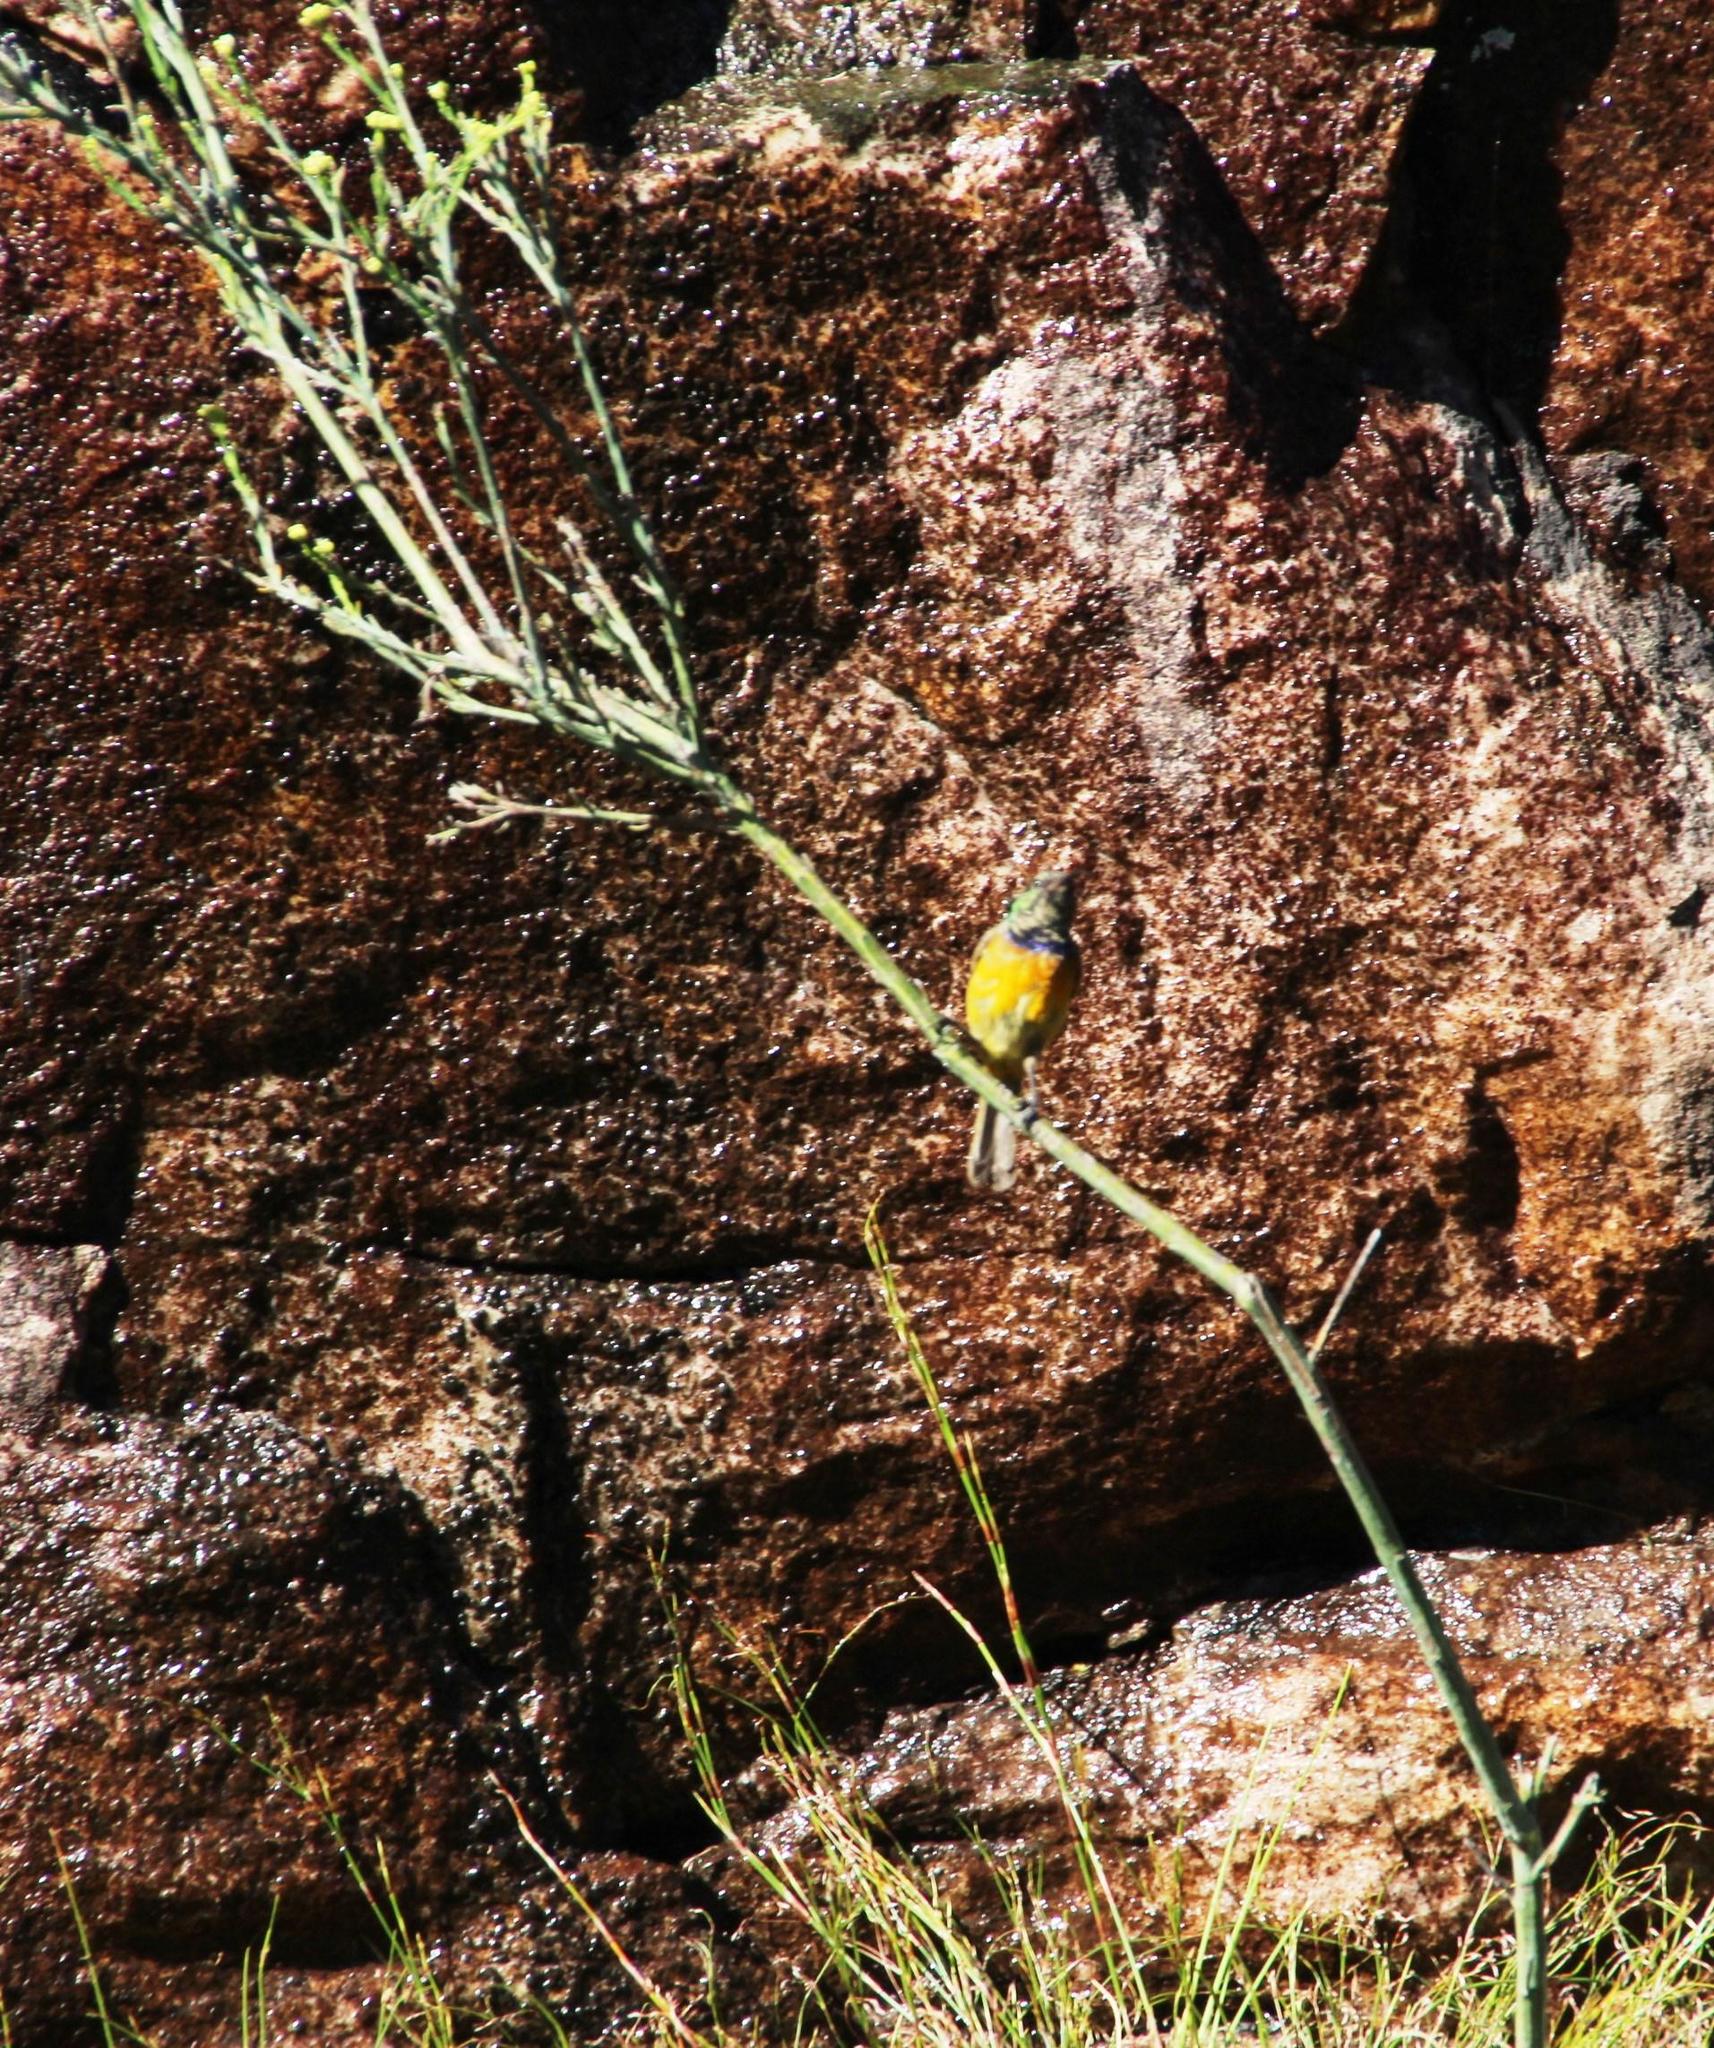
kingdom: Animalia
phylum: Chordata
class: Aves
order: Passeriformes
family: Nectariniidae
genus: Anthobaphes
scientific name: Anthobaphes violacea
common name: Orange-breasted sunbird
